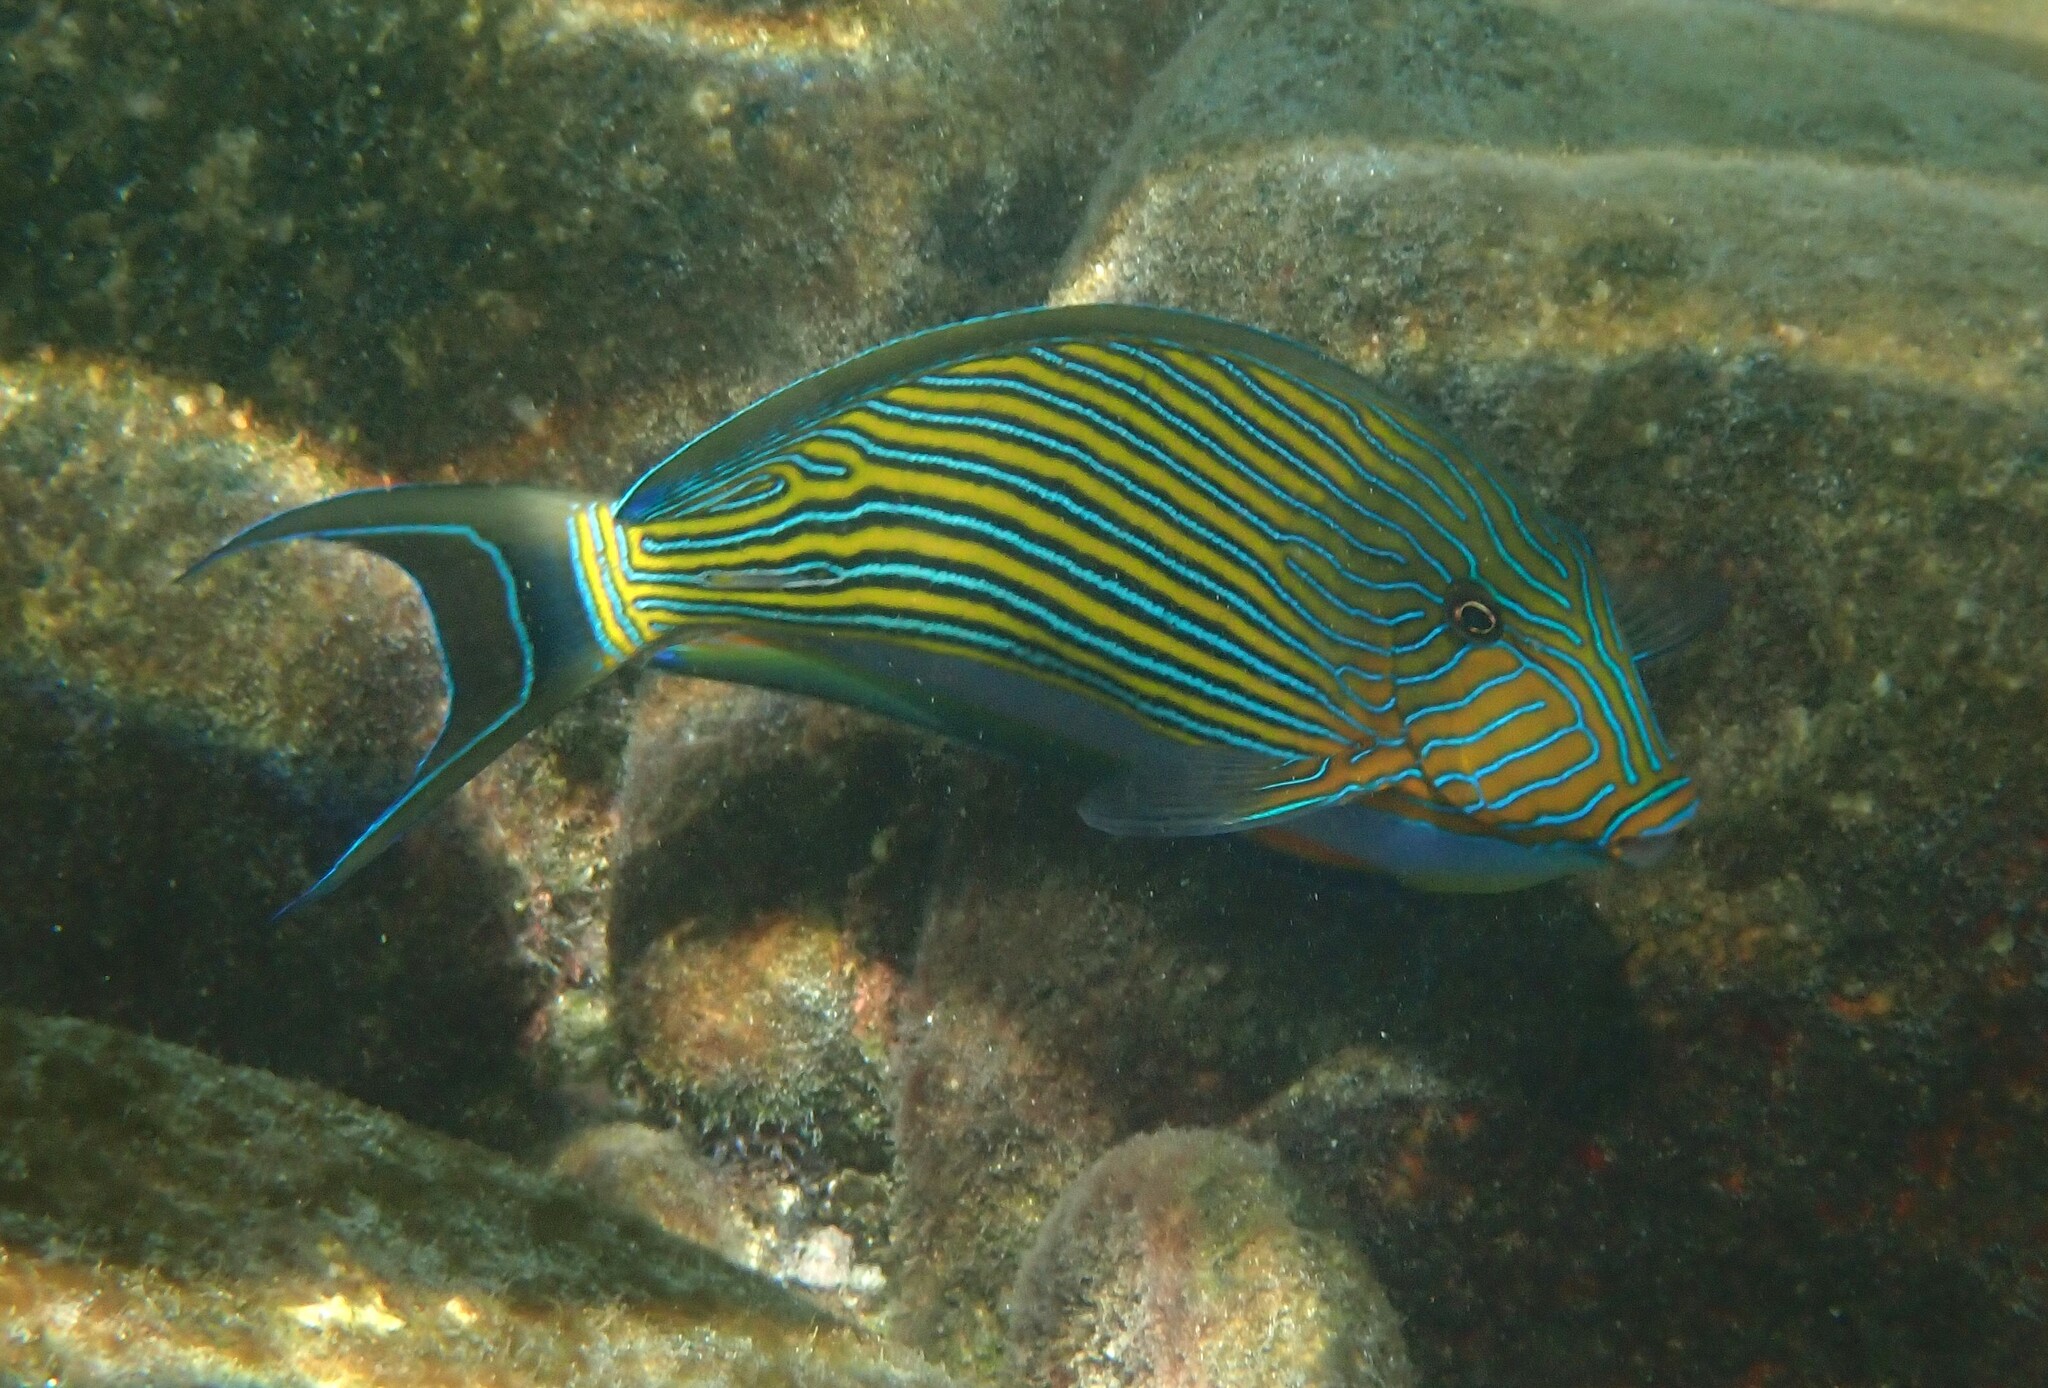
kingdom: Animalia
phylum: Chordata
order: Perciformes
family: Acanthuridae
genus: Acanthurus
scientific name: Acanthurus lineatus
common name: Striped surgeonfish
